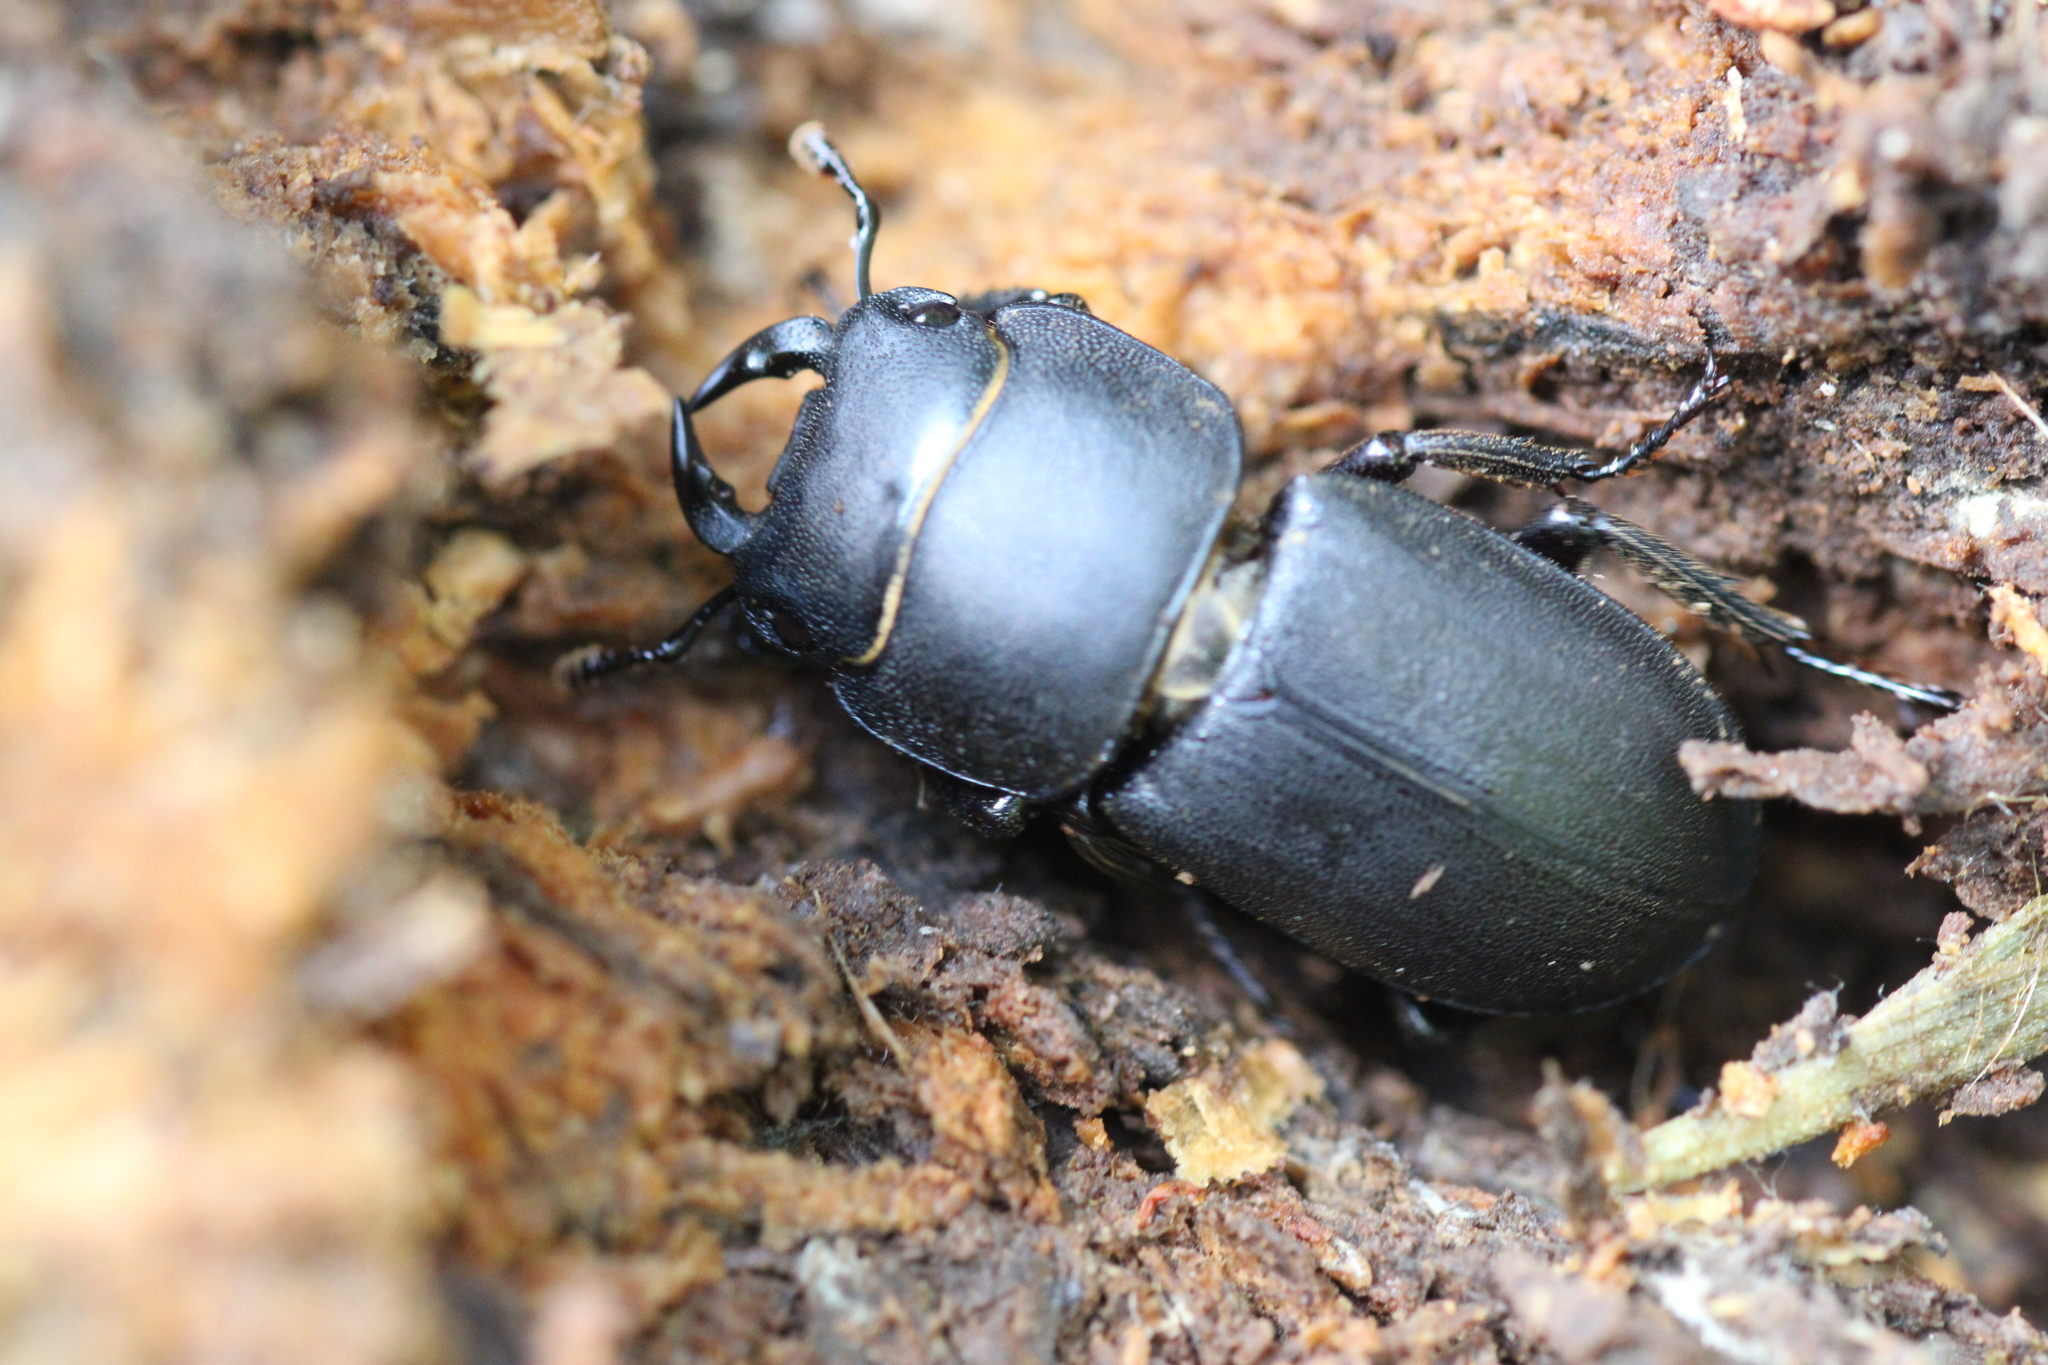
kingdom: Animalia
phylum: Arthropoda
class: Insecta
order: Coleoptera
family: Lucanidae
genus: Dorcus
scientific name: Dorcus parallelipipedus
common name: Lesser stag beetle
